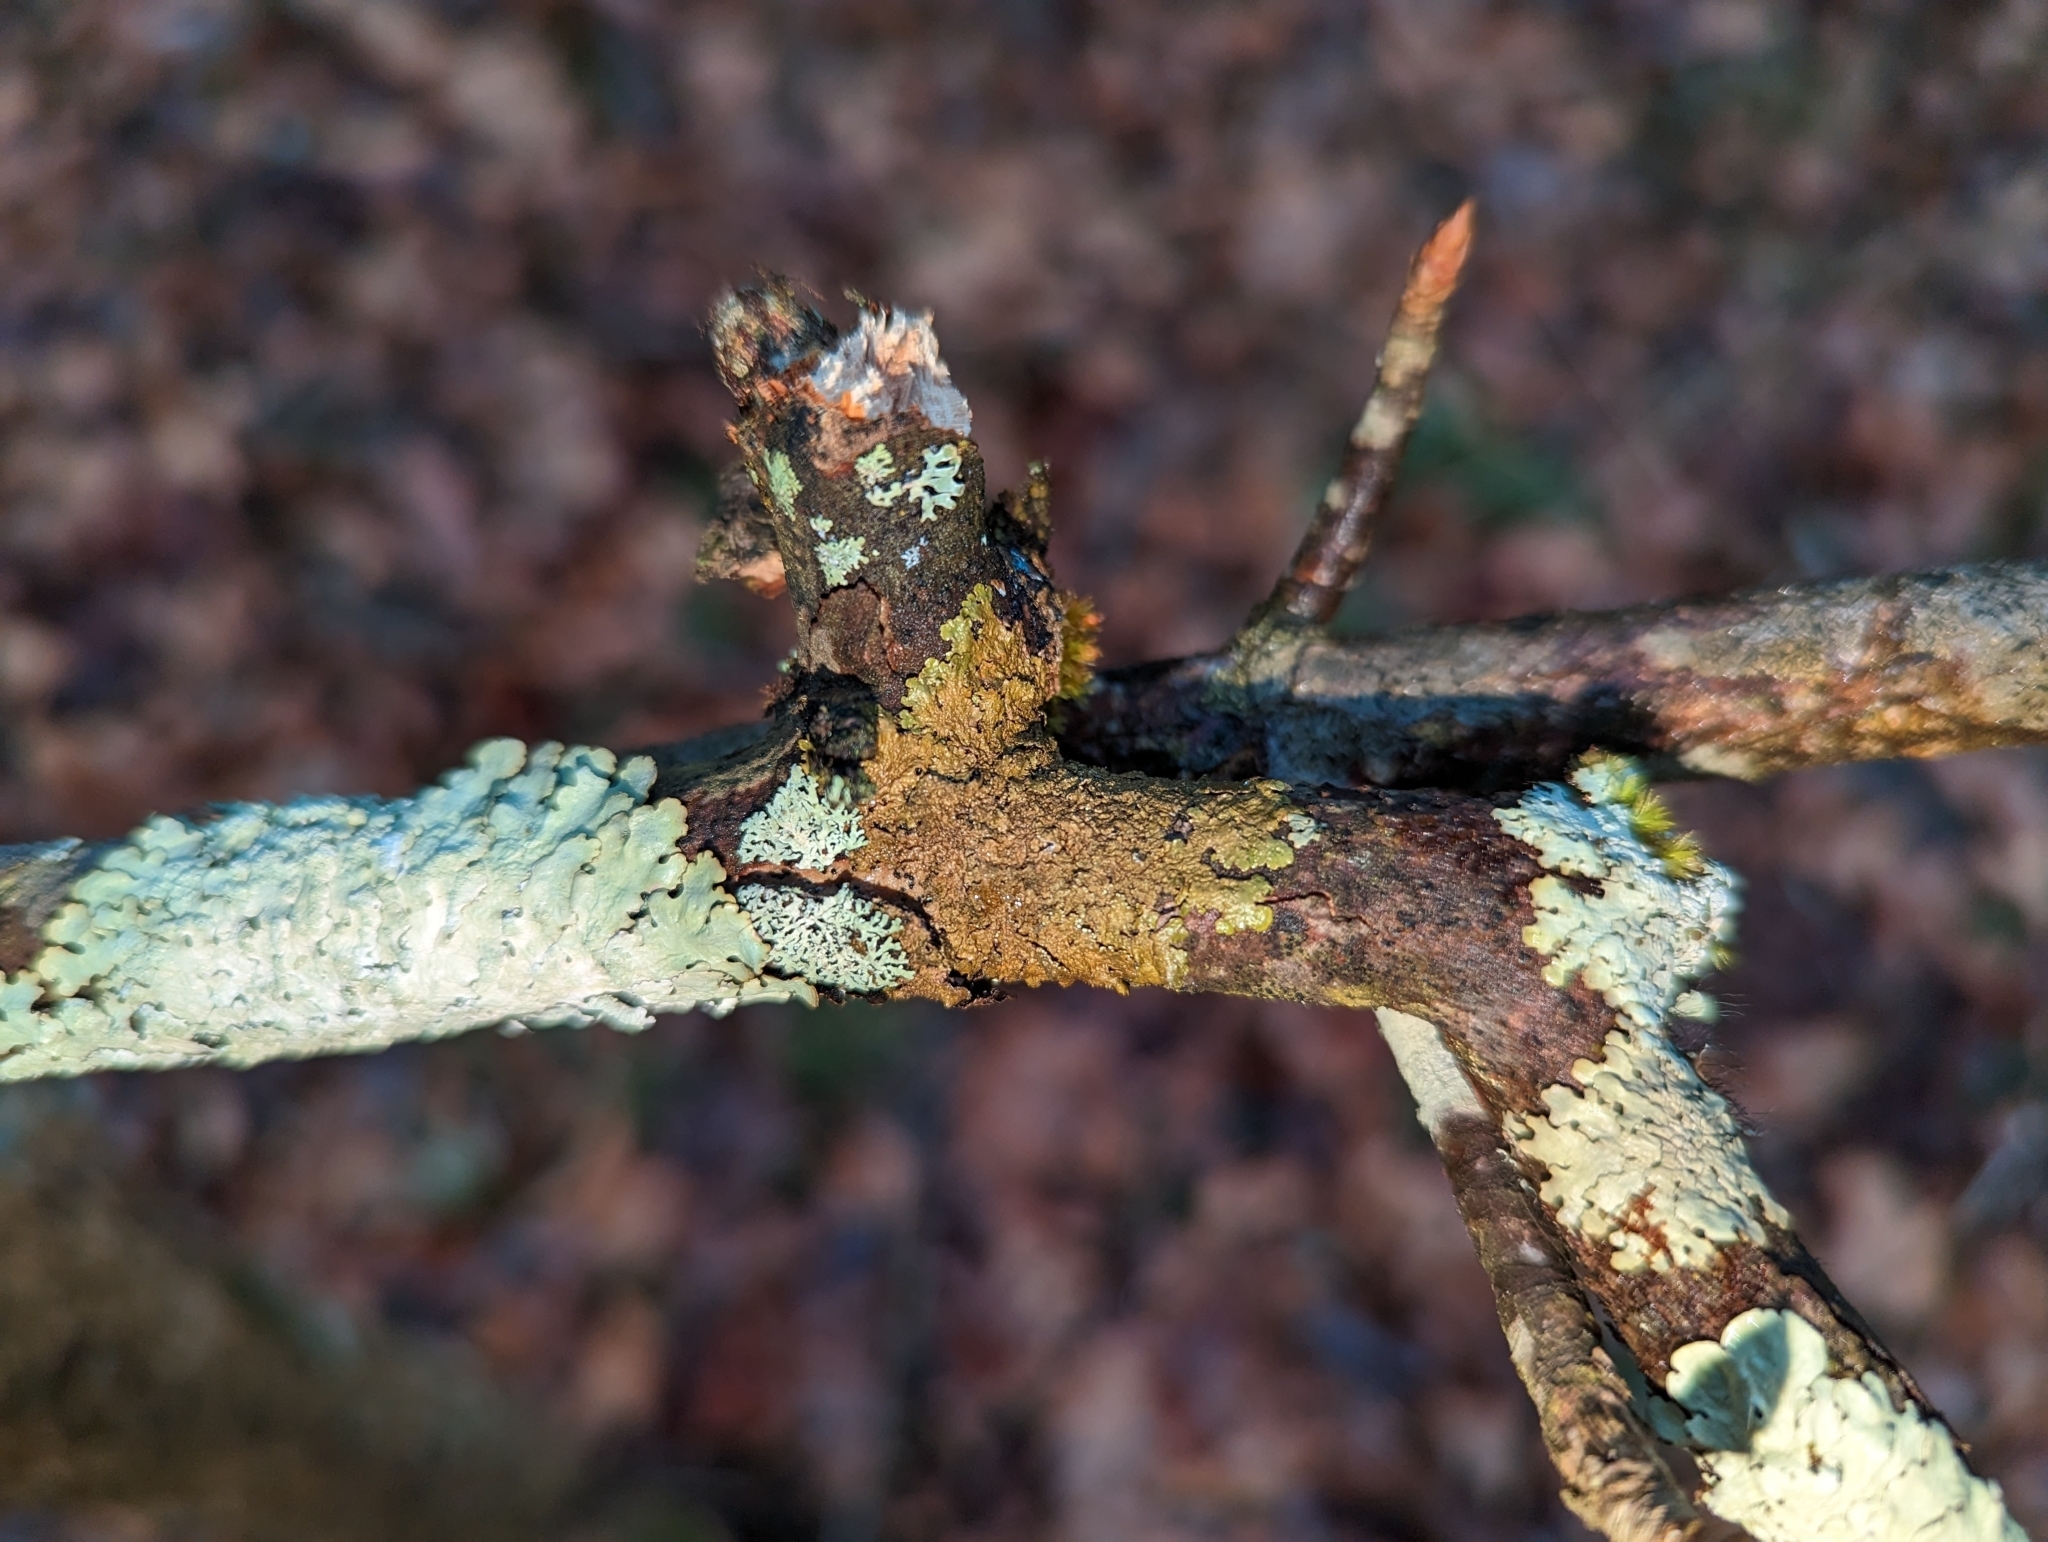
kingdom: Fungi
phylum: Ascomycota
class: Lecanoromycetes
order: Lecanorales
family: Parmeliaceae
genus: Melanelixia
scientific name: Melanelixia subaurifera
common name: Abraded camouflage lichen
